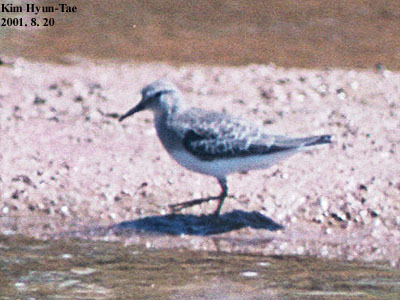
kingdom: Animalia
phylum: Chordata
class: Aves
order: Charadriiformes
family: Scolopacidae
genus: Calidris
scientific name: Calidris temminckii
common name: Temminck's stint
